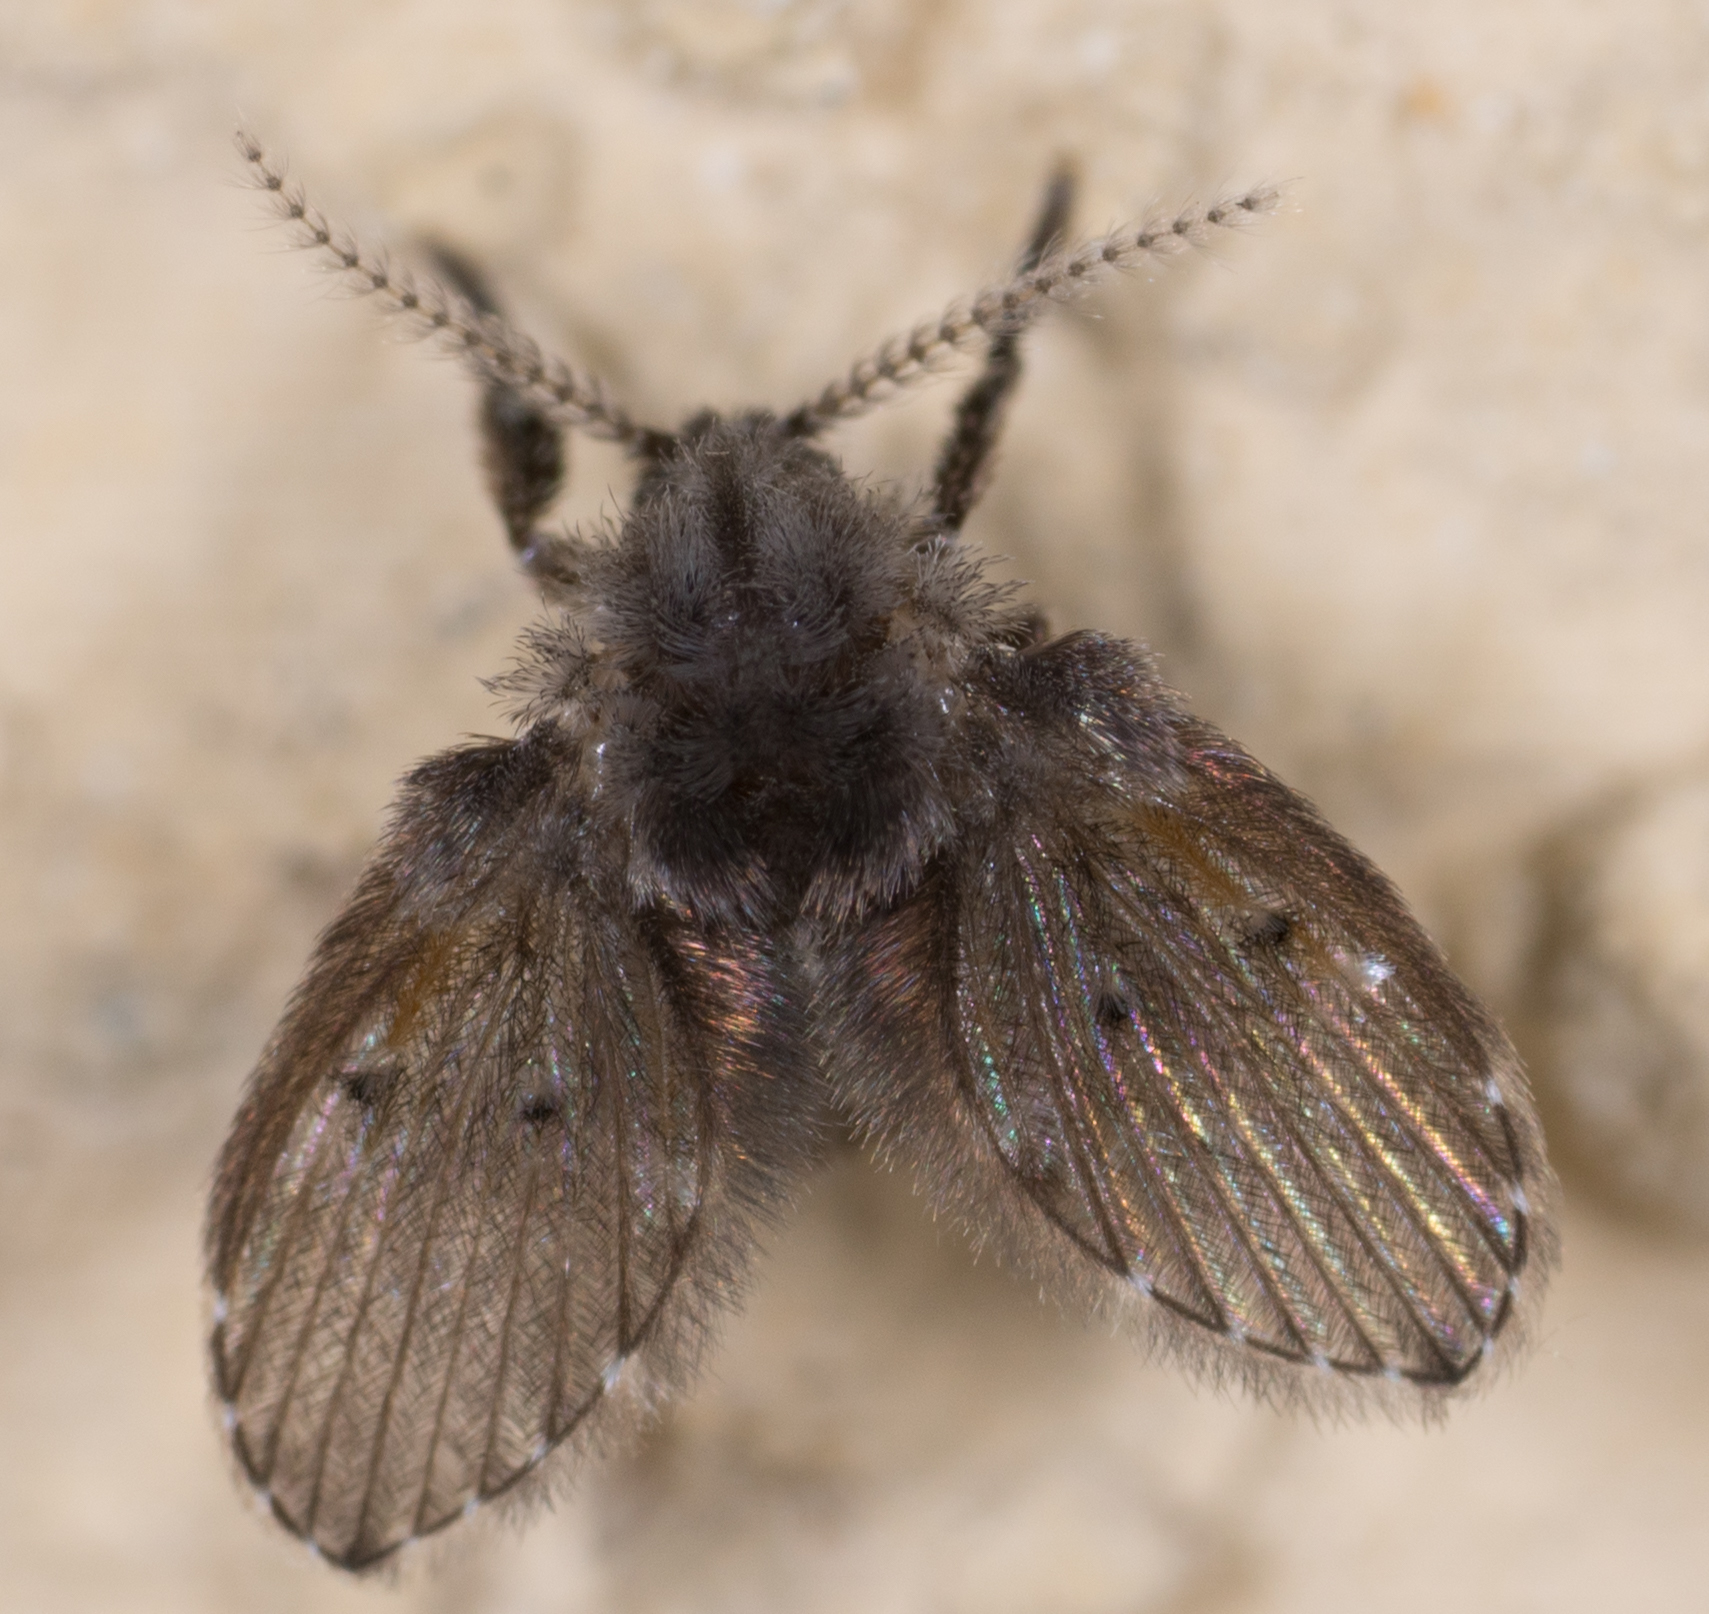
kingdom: Animalia
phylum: Arthropoda
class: Insecta
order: Diptera
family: Psychodidae
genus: Clogmia
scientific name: Clogmia albipunctatus
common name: White-spotted moth fly
